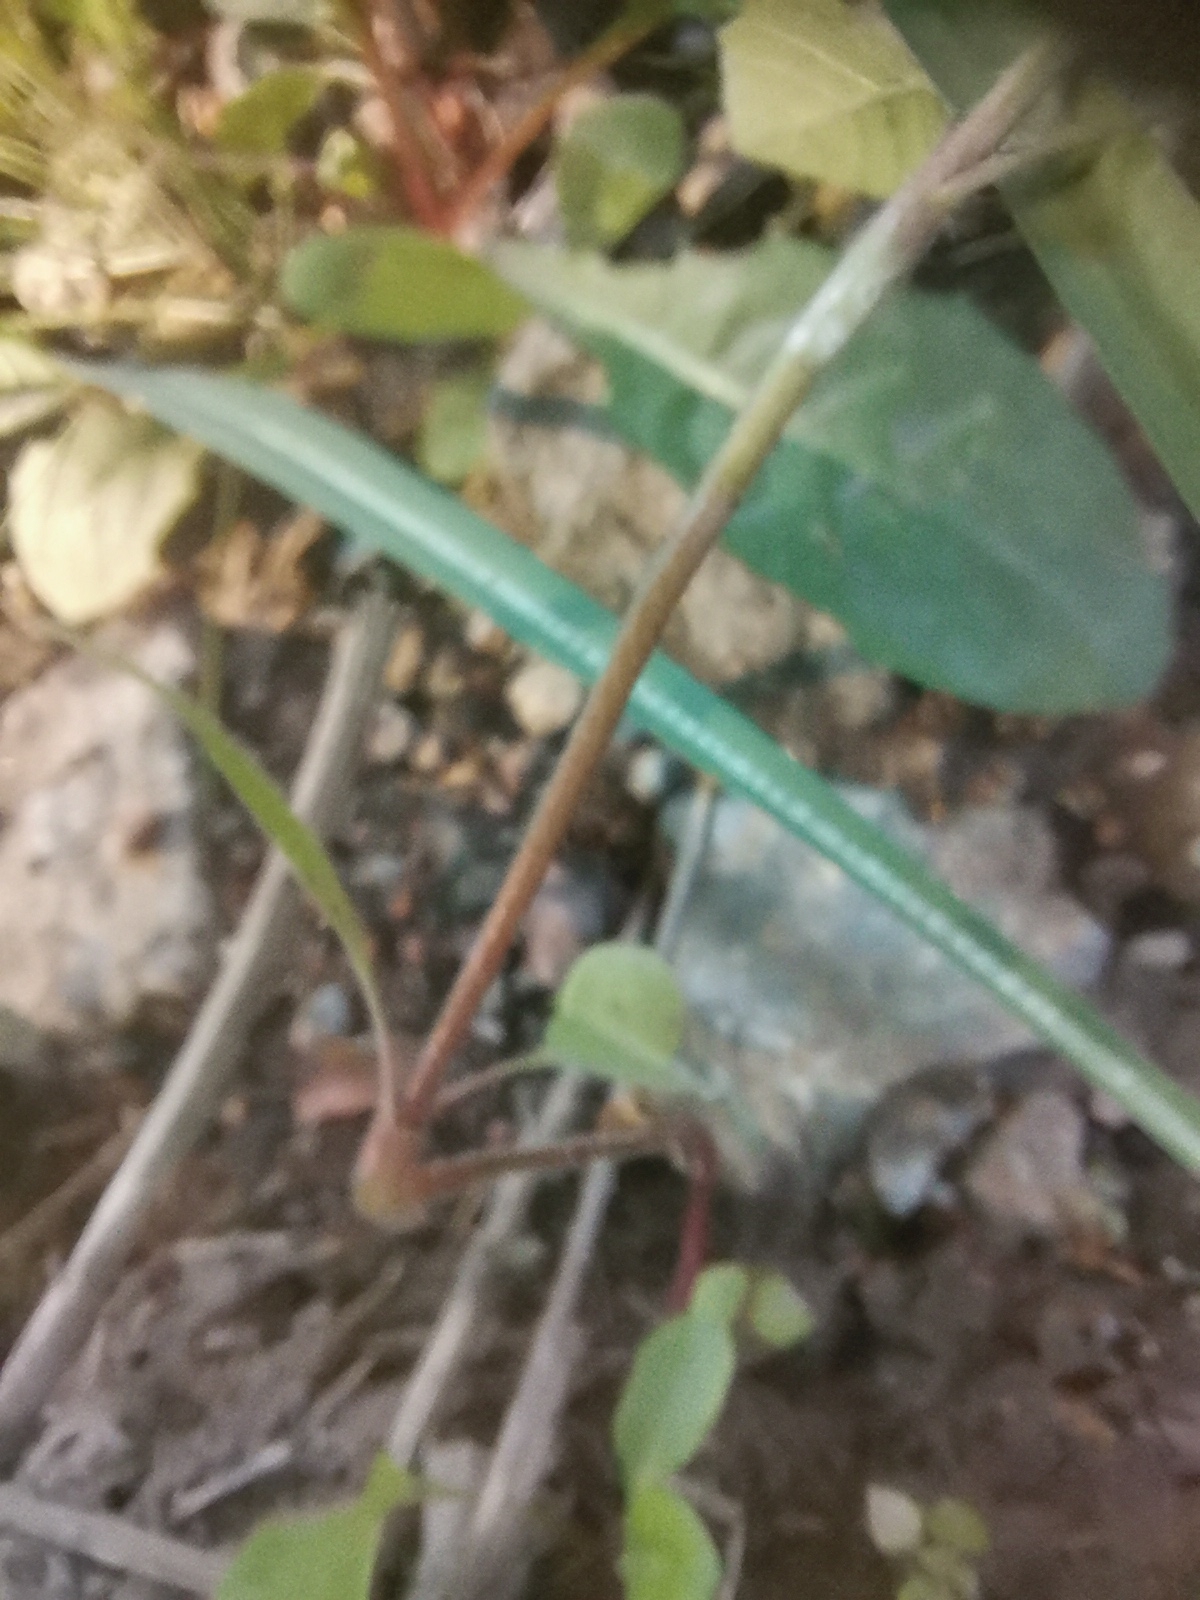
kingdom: Plantae
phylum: Tracheophyta
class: Magnoliopsida
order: Lamiales
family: Lamiaceae
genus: Galeopsis
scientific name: Galeopsis speciosa
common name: Large-flowered hemp-nettle
